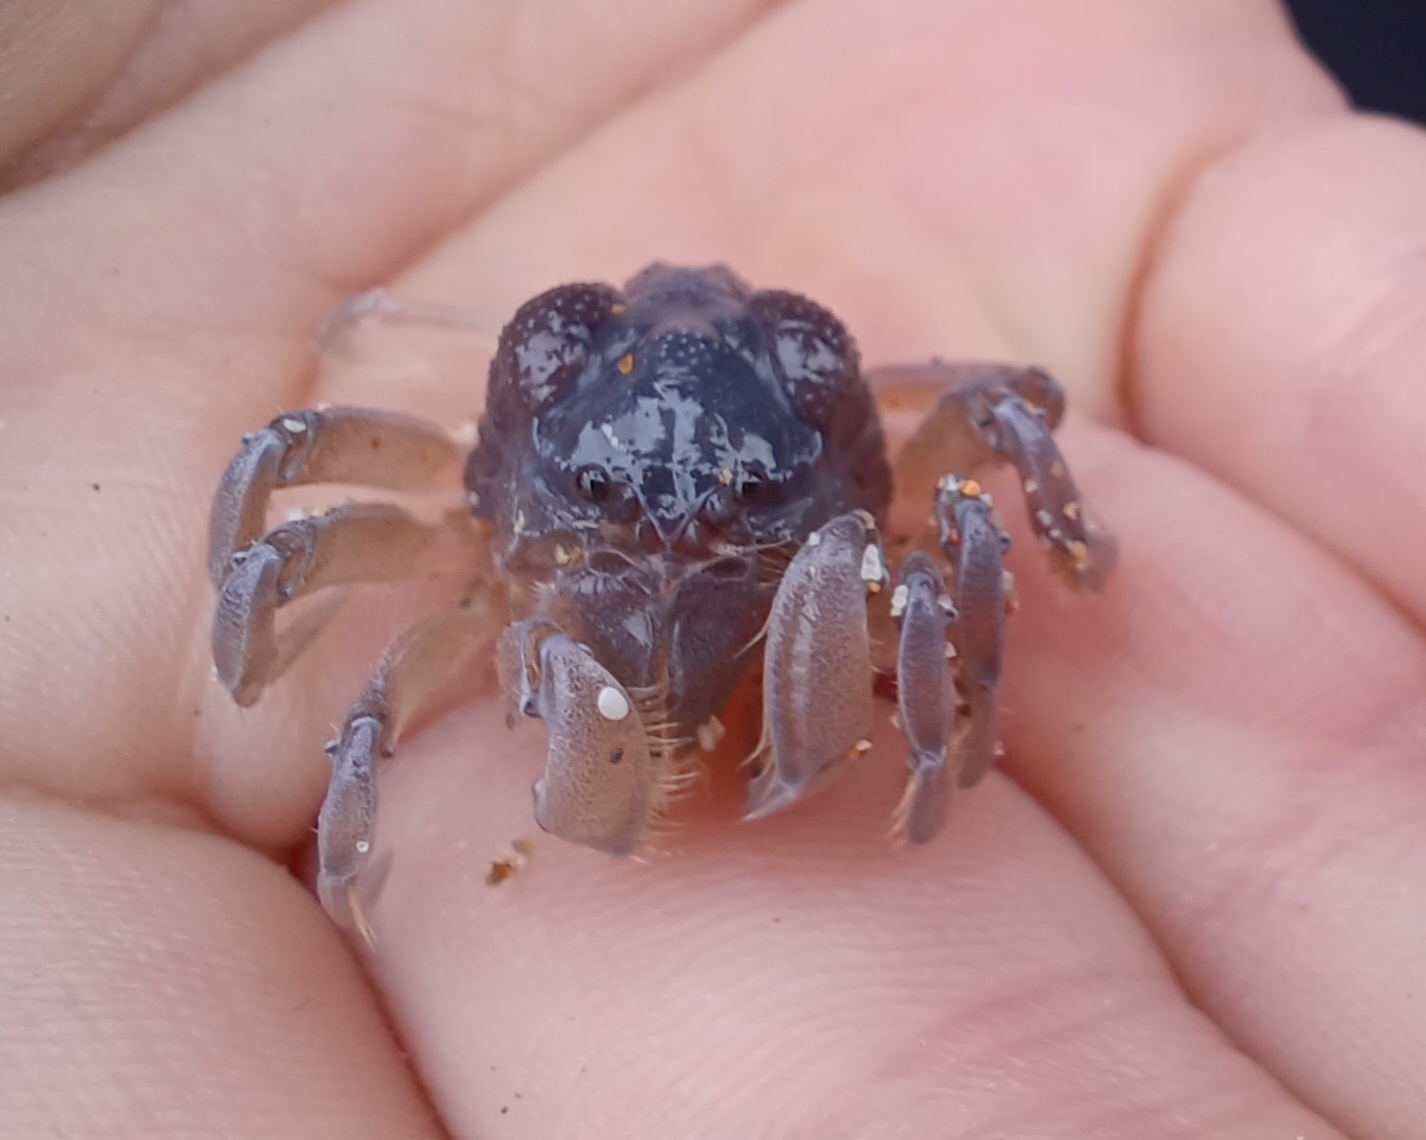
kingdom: Animalia
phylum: Arthropoda
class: Malacostraca
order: Decapoda
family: Mictyridae
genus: Mictyris
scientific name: Mictyris platycheles
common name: Dark blue soldier crab
